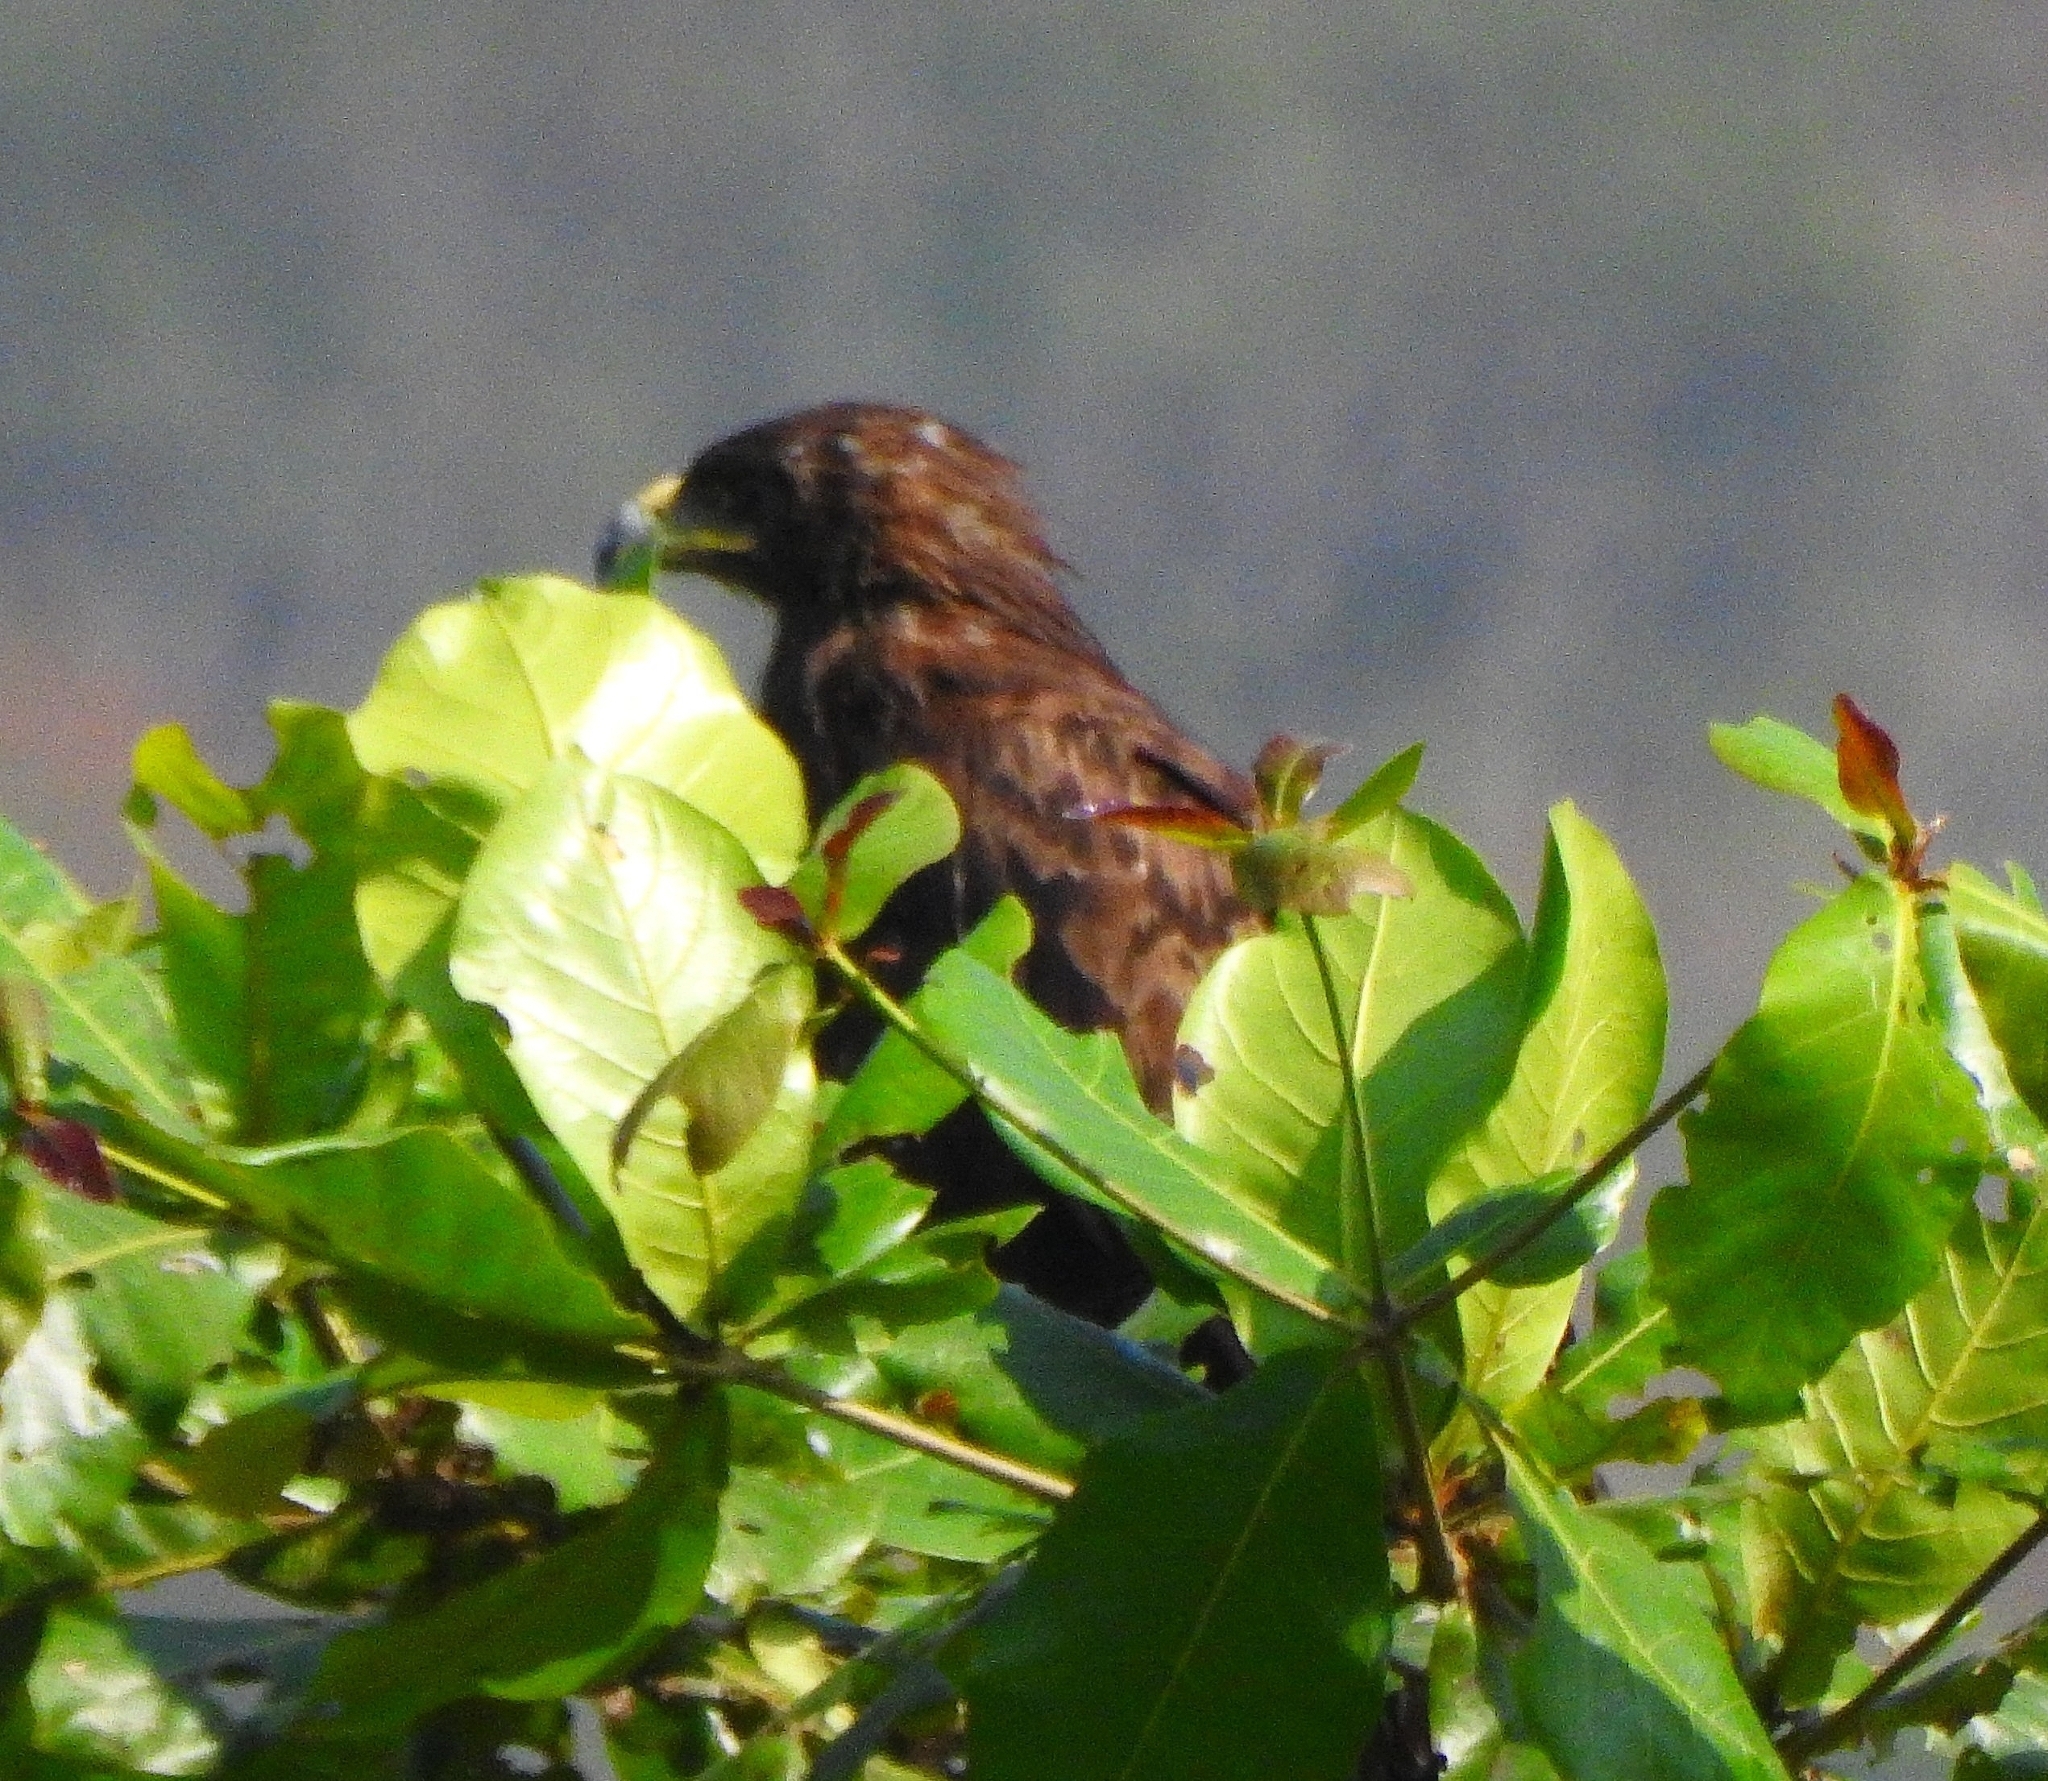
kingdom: Animalia
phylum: Chordata
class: Aves
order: Accipitriformes
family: Accipitridae
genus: Aquila
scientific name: Aquila clanga
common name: Greater spotted eagle
